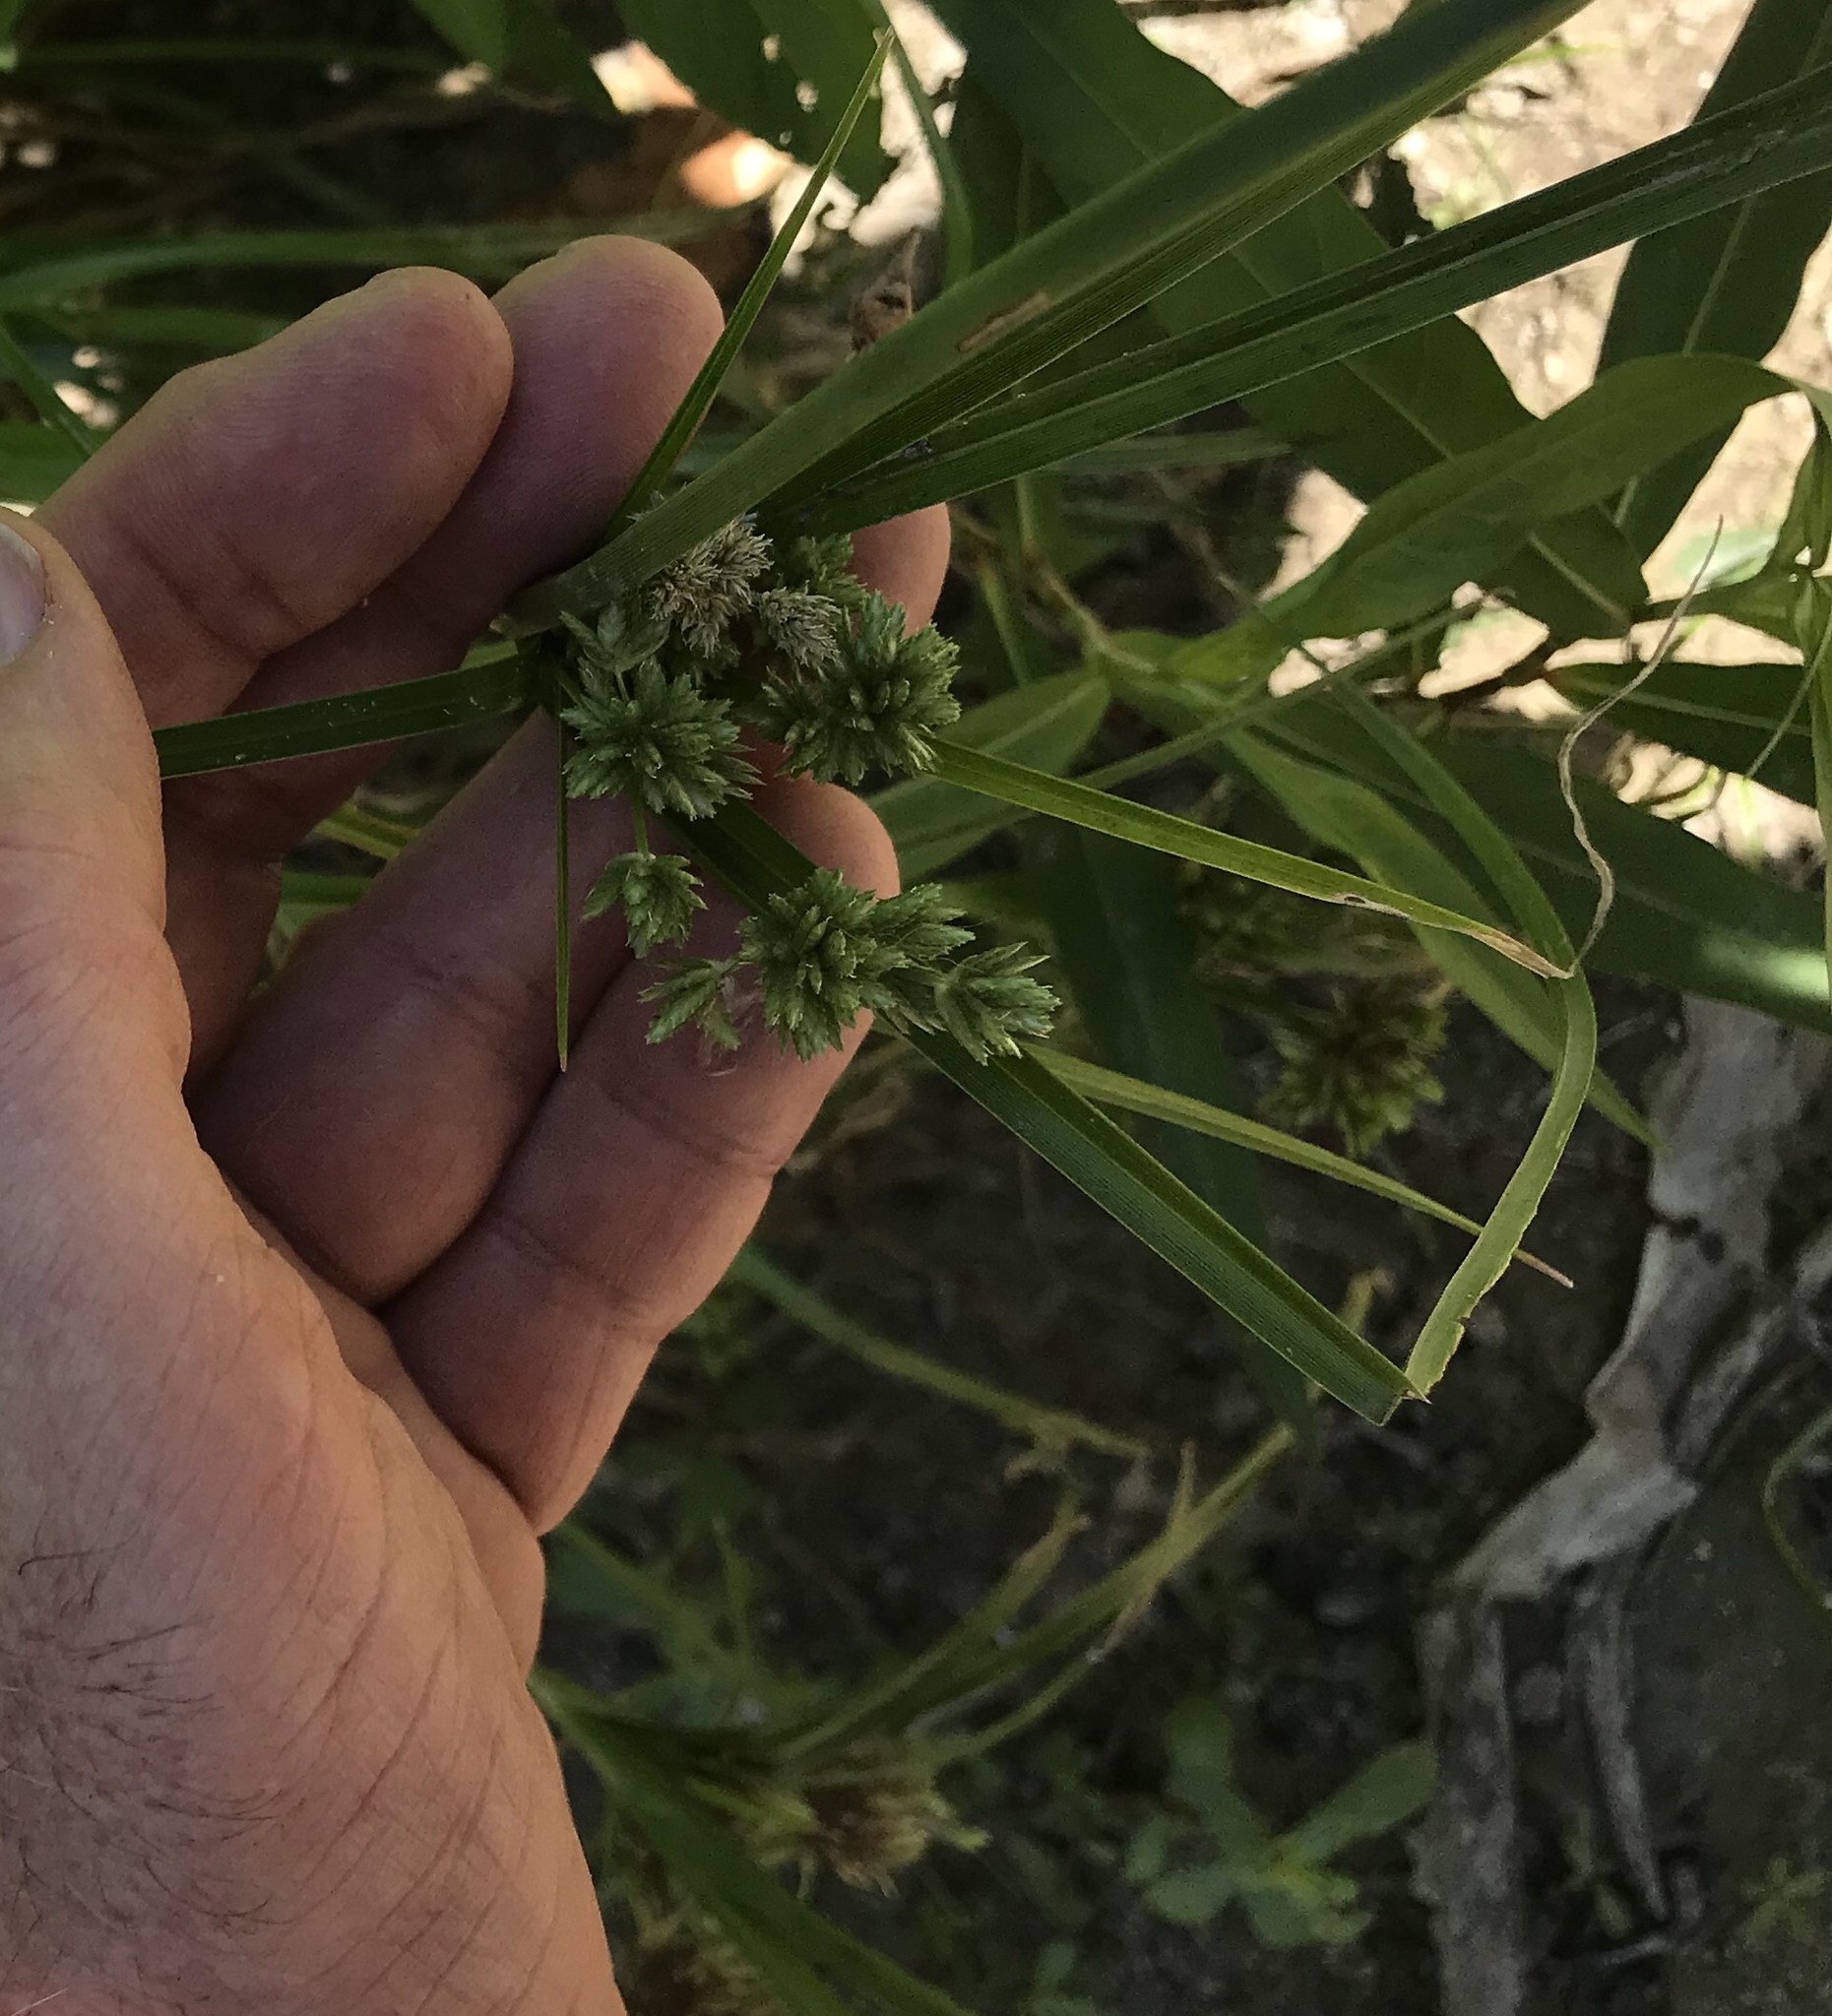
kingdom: Plantae
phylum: Tracheophyta
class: Liliopsida
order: Poales
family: Cyperaceae
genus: Cyperus
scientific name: Cyperus eragrostis
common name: Tall flatsedge
